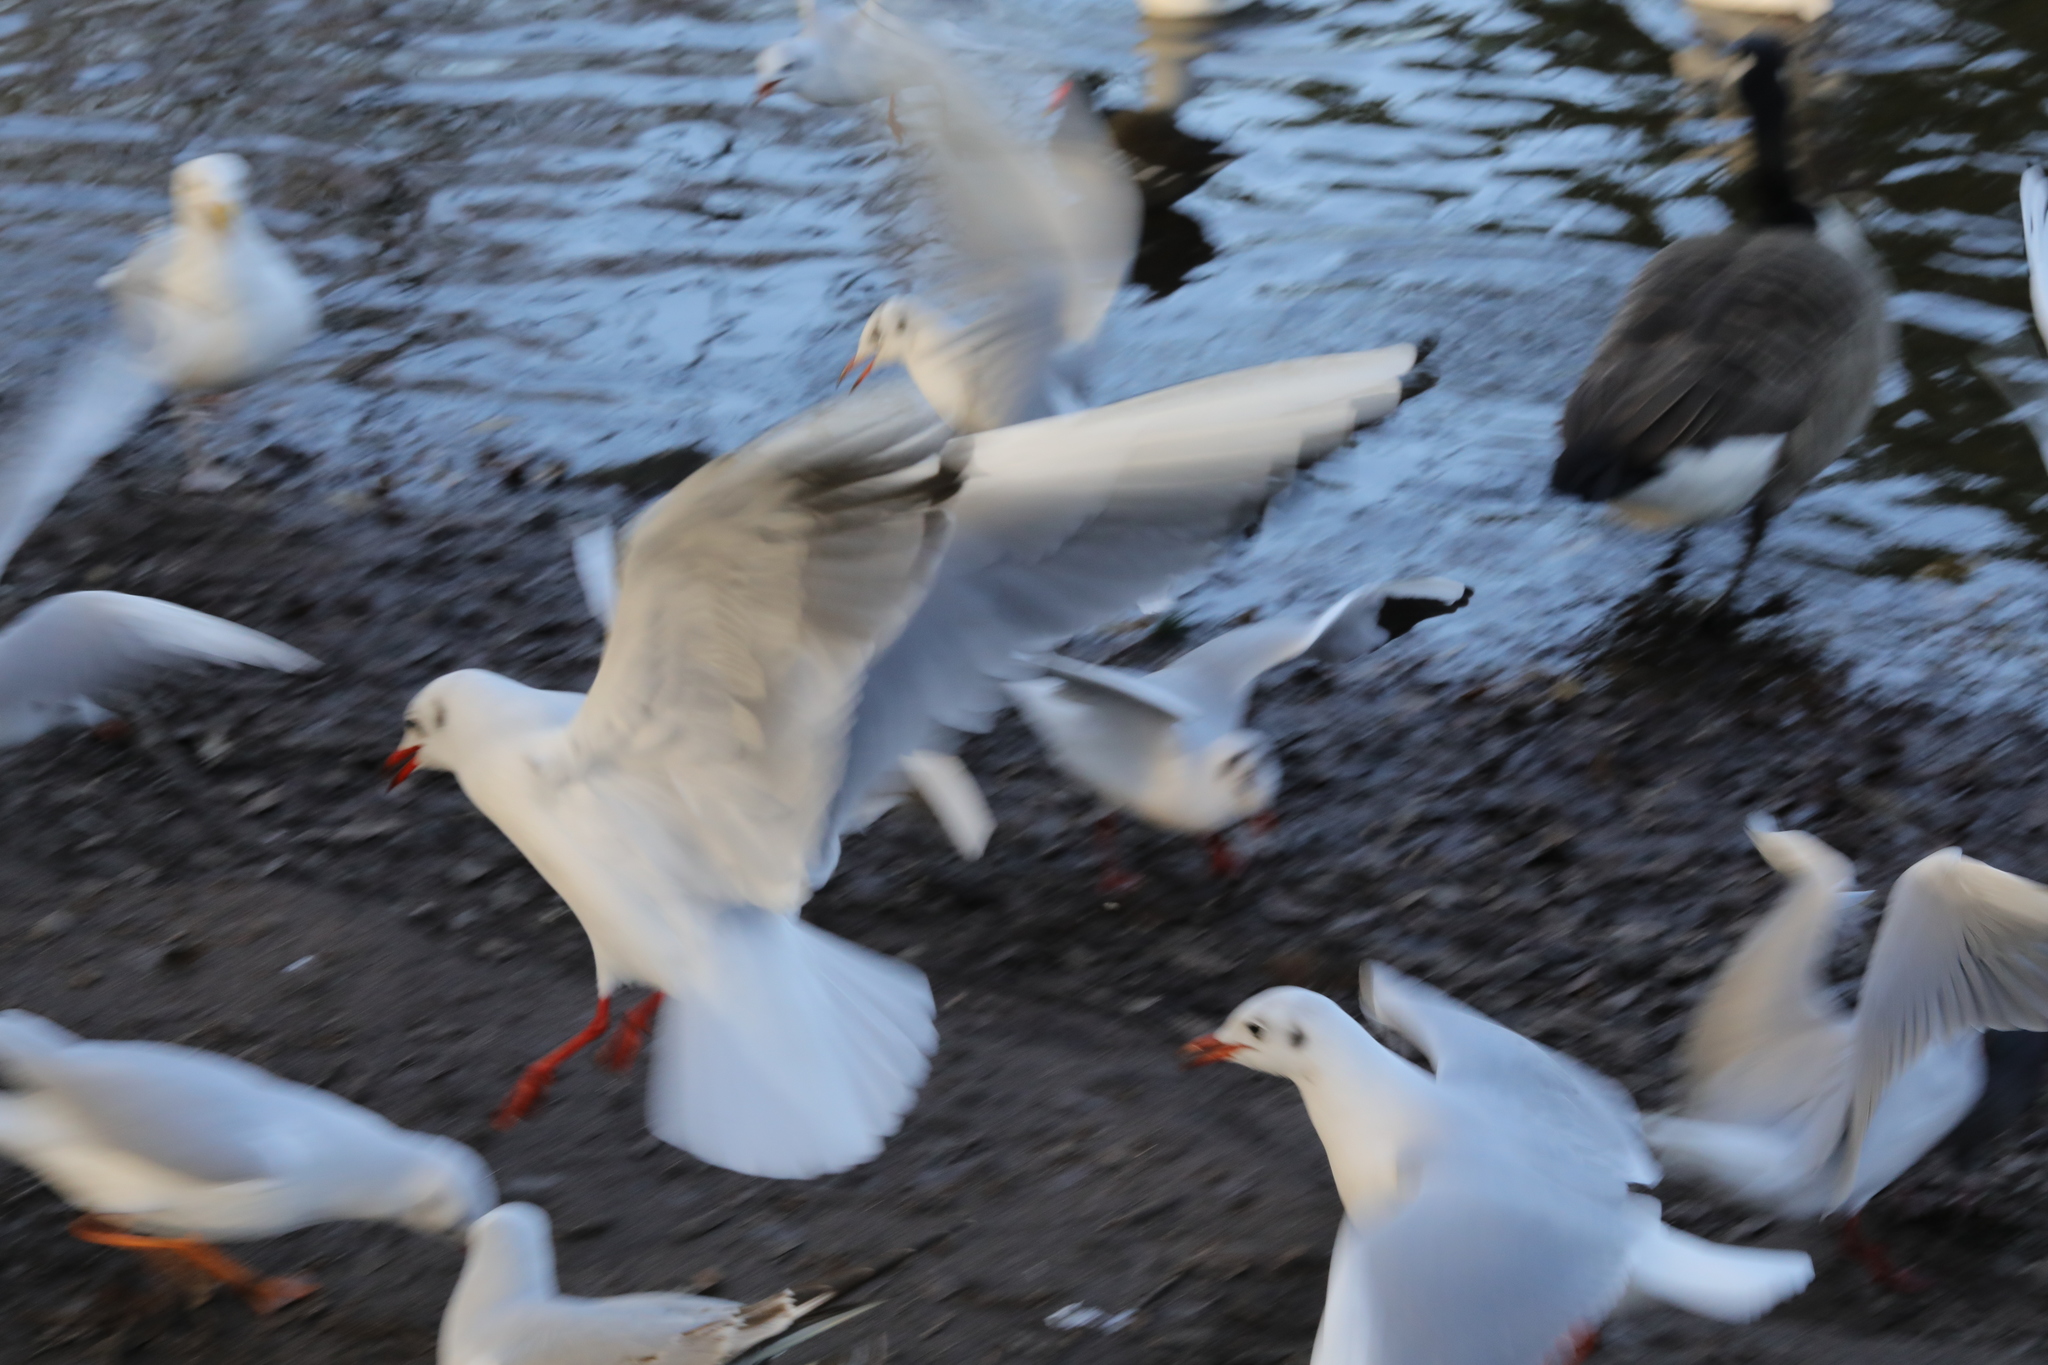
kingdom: Animalia
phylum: Chordata
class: Aves
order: Charadriiformes
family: Laridae
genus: Chroicocephalus
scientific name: Chroicocephalus ridibundus
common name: Black-headed gull
